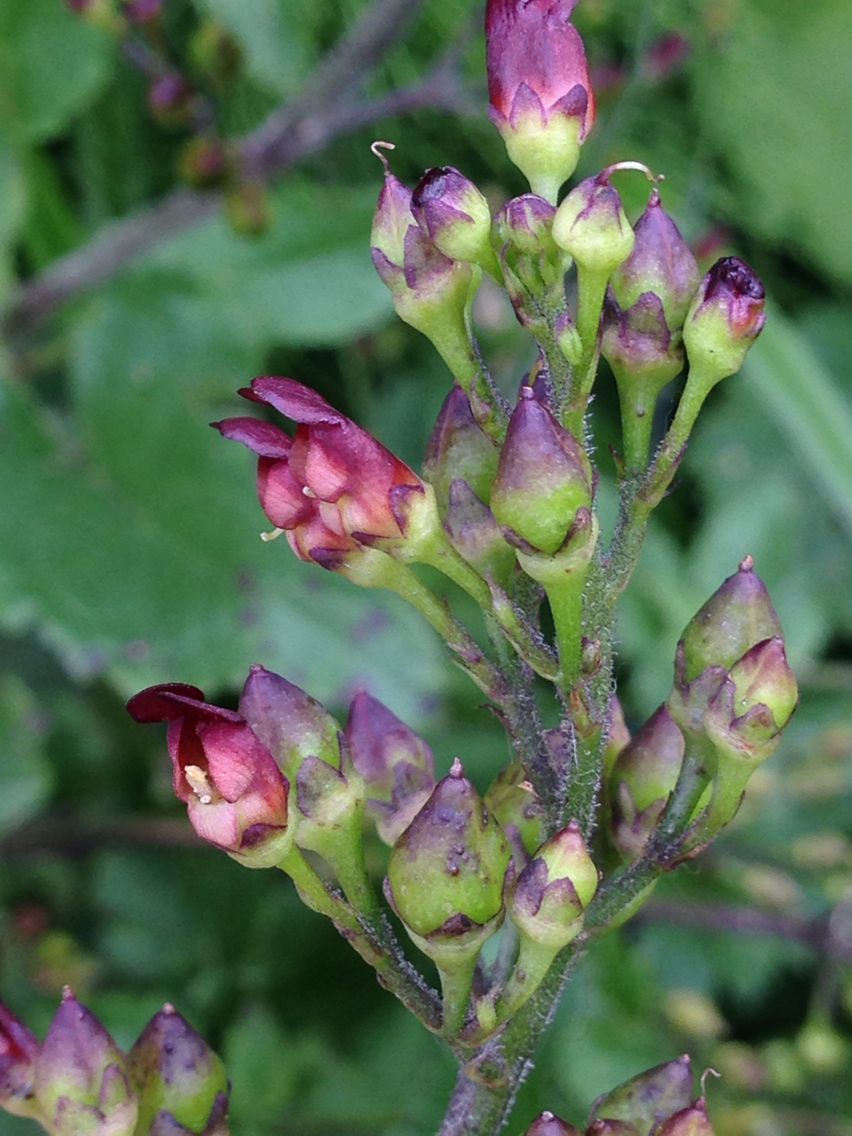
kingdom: Plantae
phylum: Tracheophyta
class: Magnoliopsida
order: Lamiales
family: Scrophulariaceae
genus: Scrophularia
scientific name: Scrophularia californica
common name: California figwort
